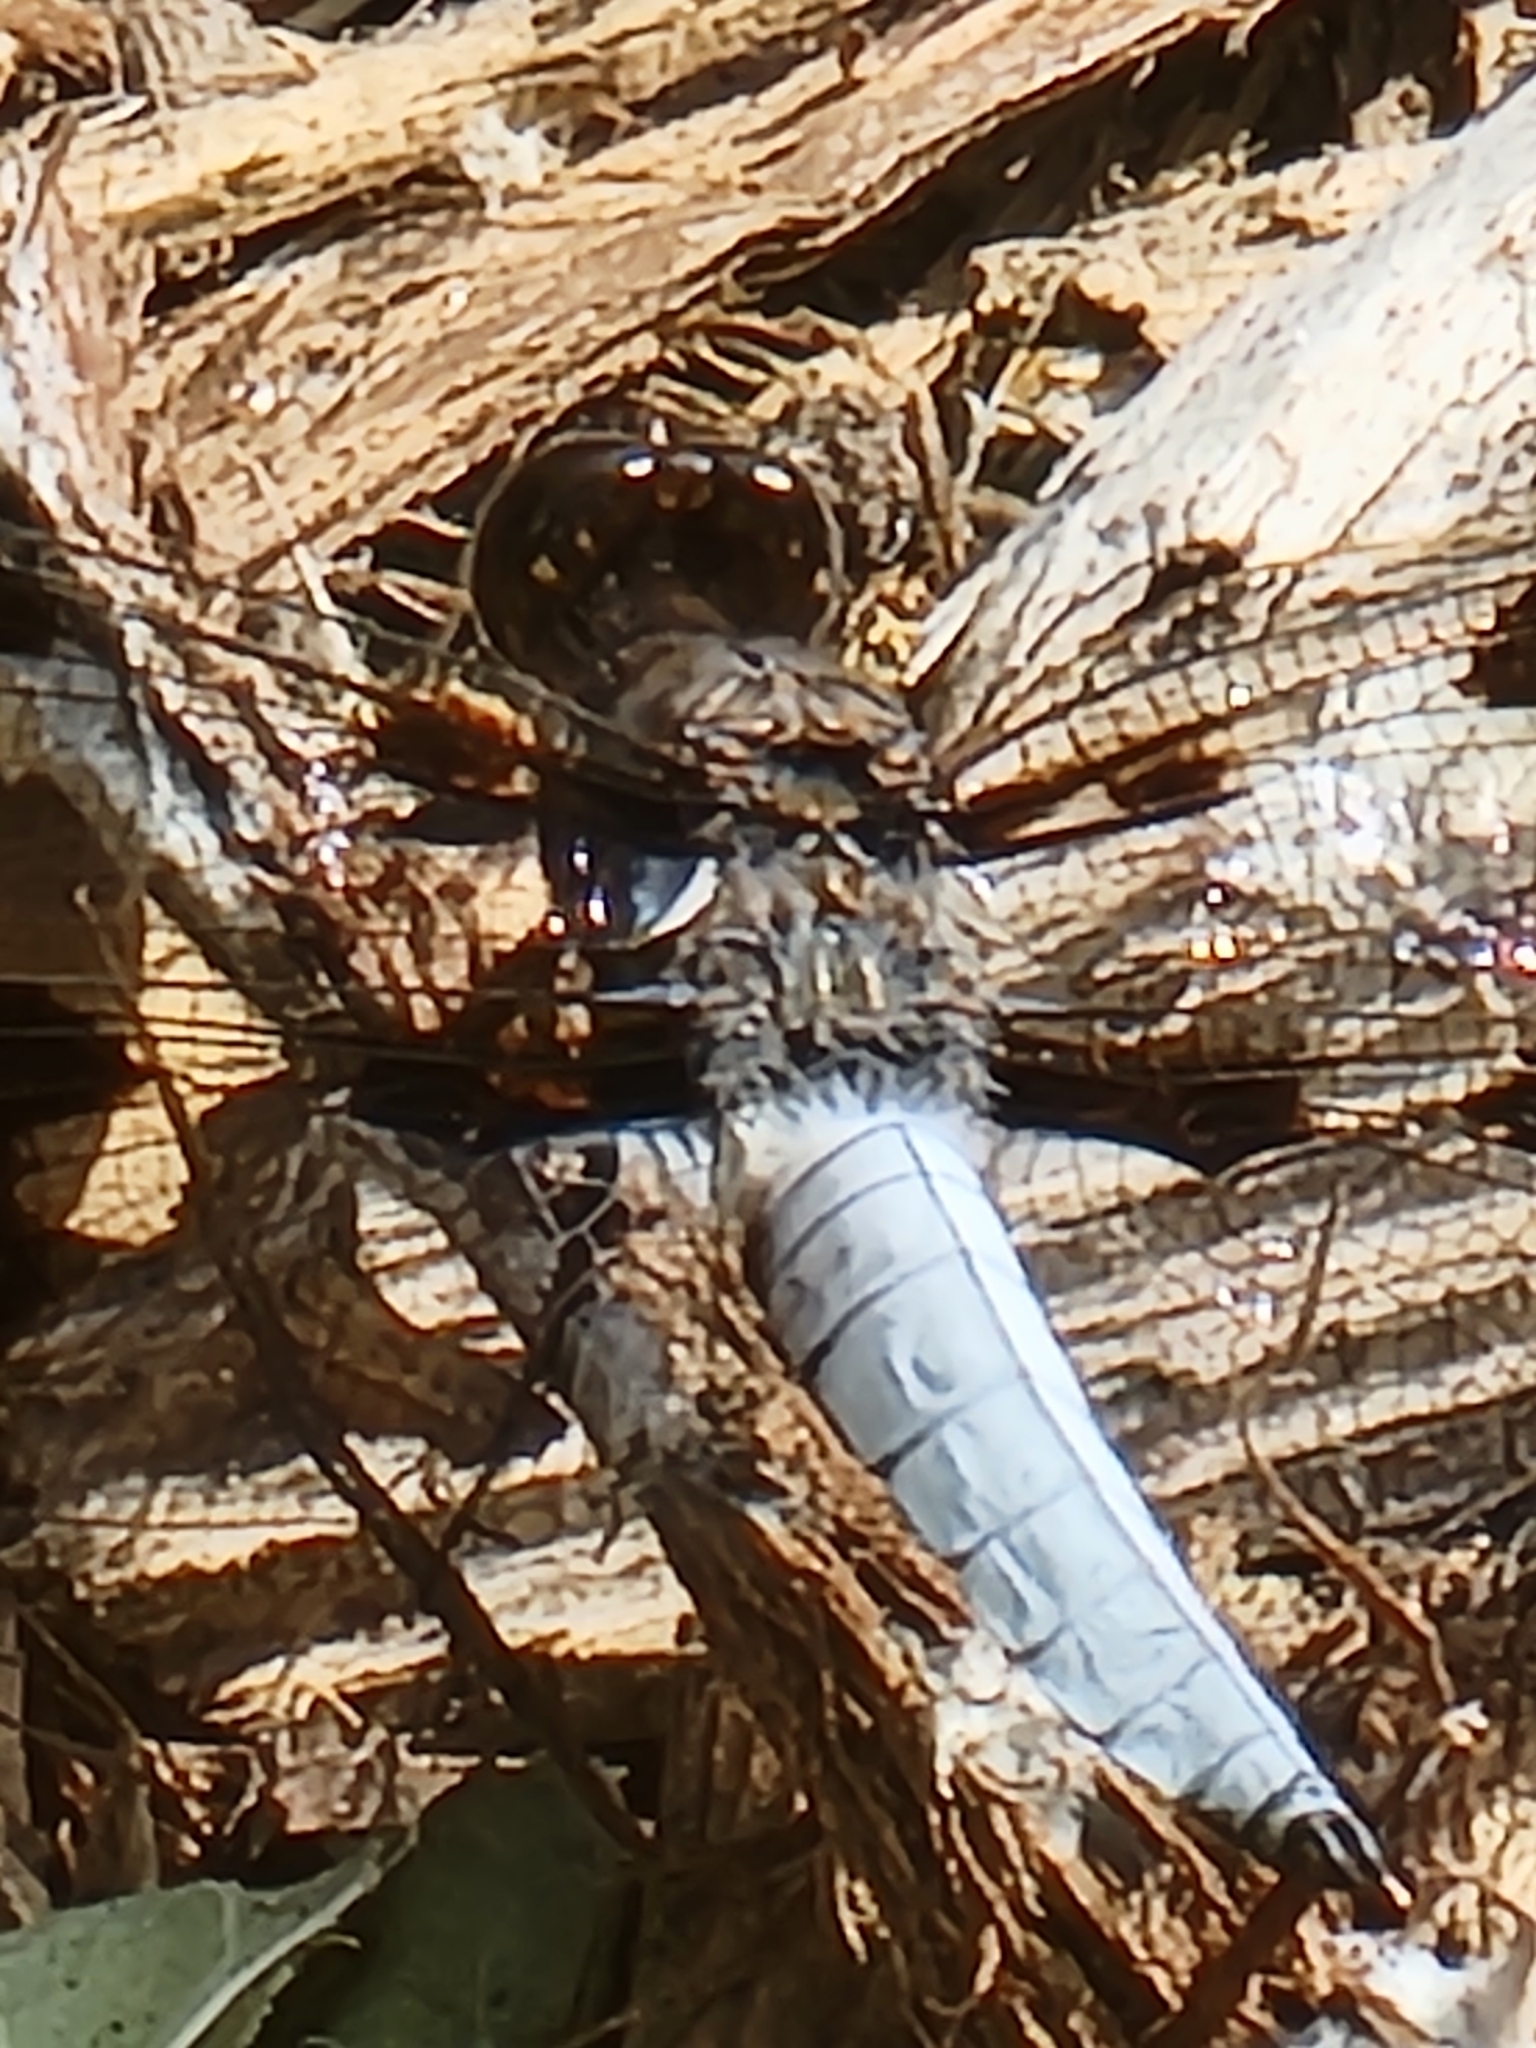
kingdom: Animalia
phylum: Arthropoda
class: Insecta
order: Odonata
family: Libellulidae
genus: Plathemis
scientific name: Plathemis lydia
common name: Common whitetail
